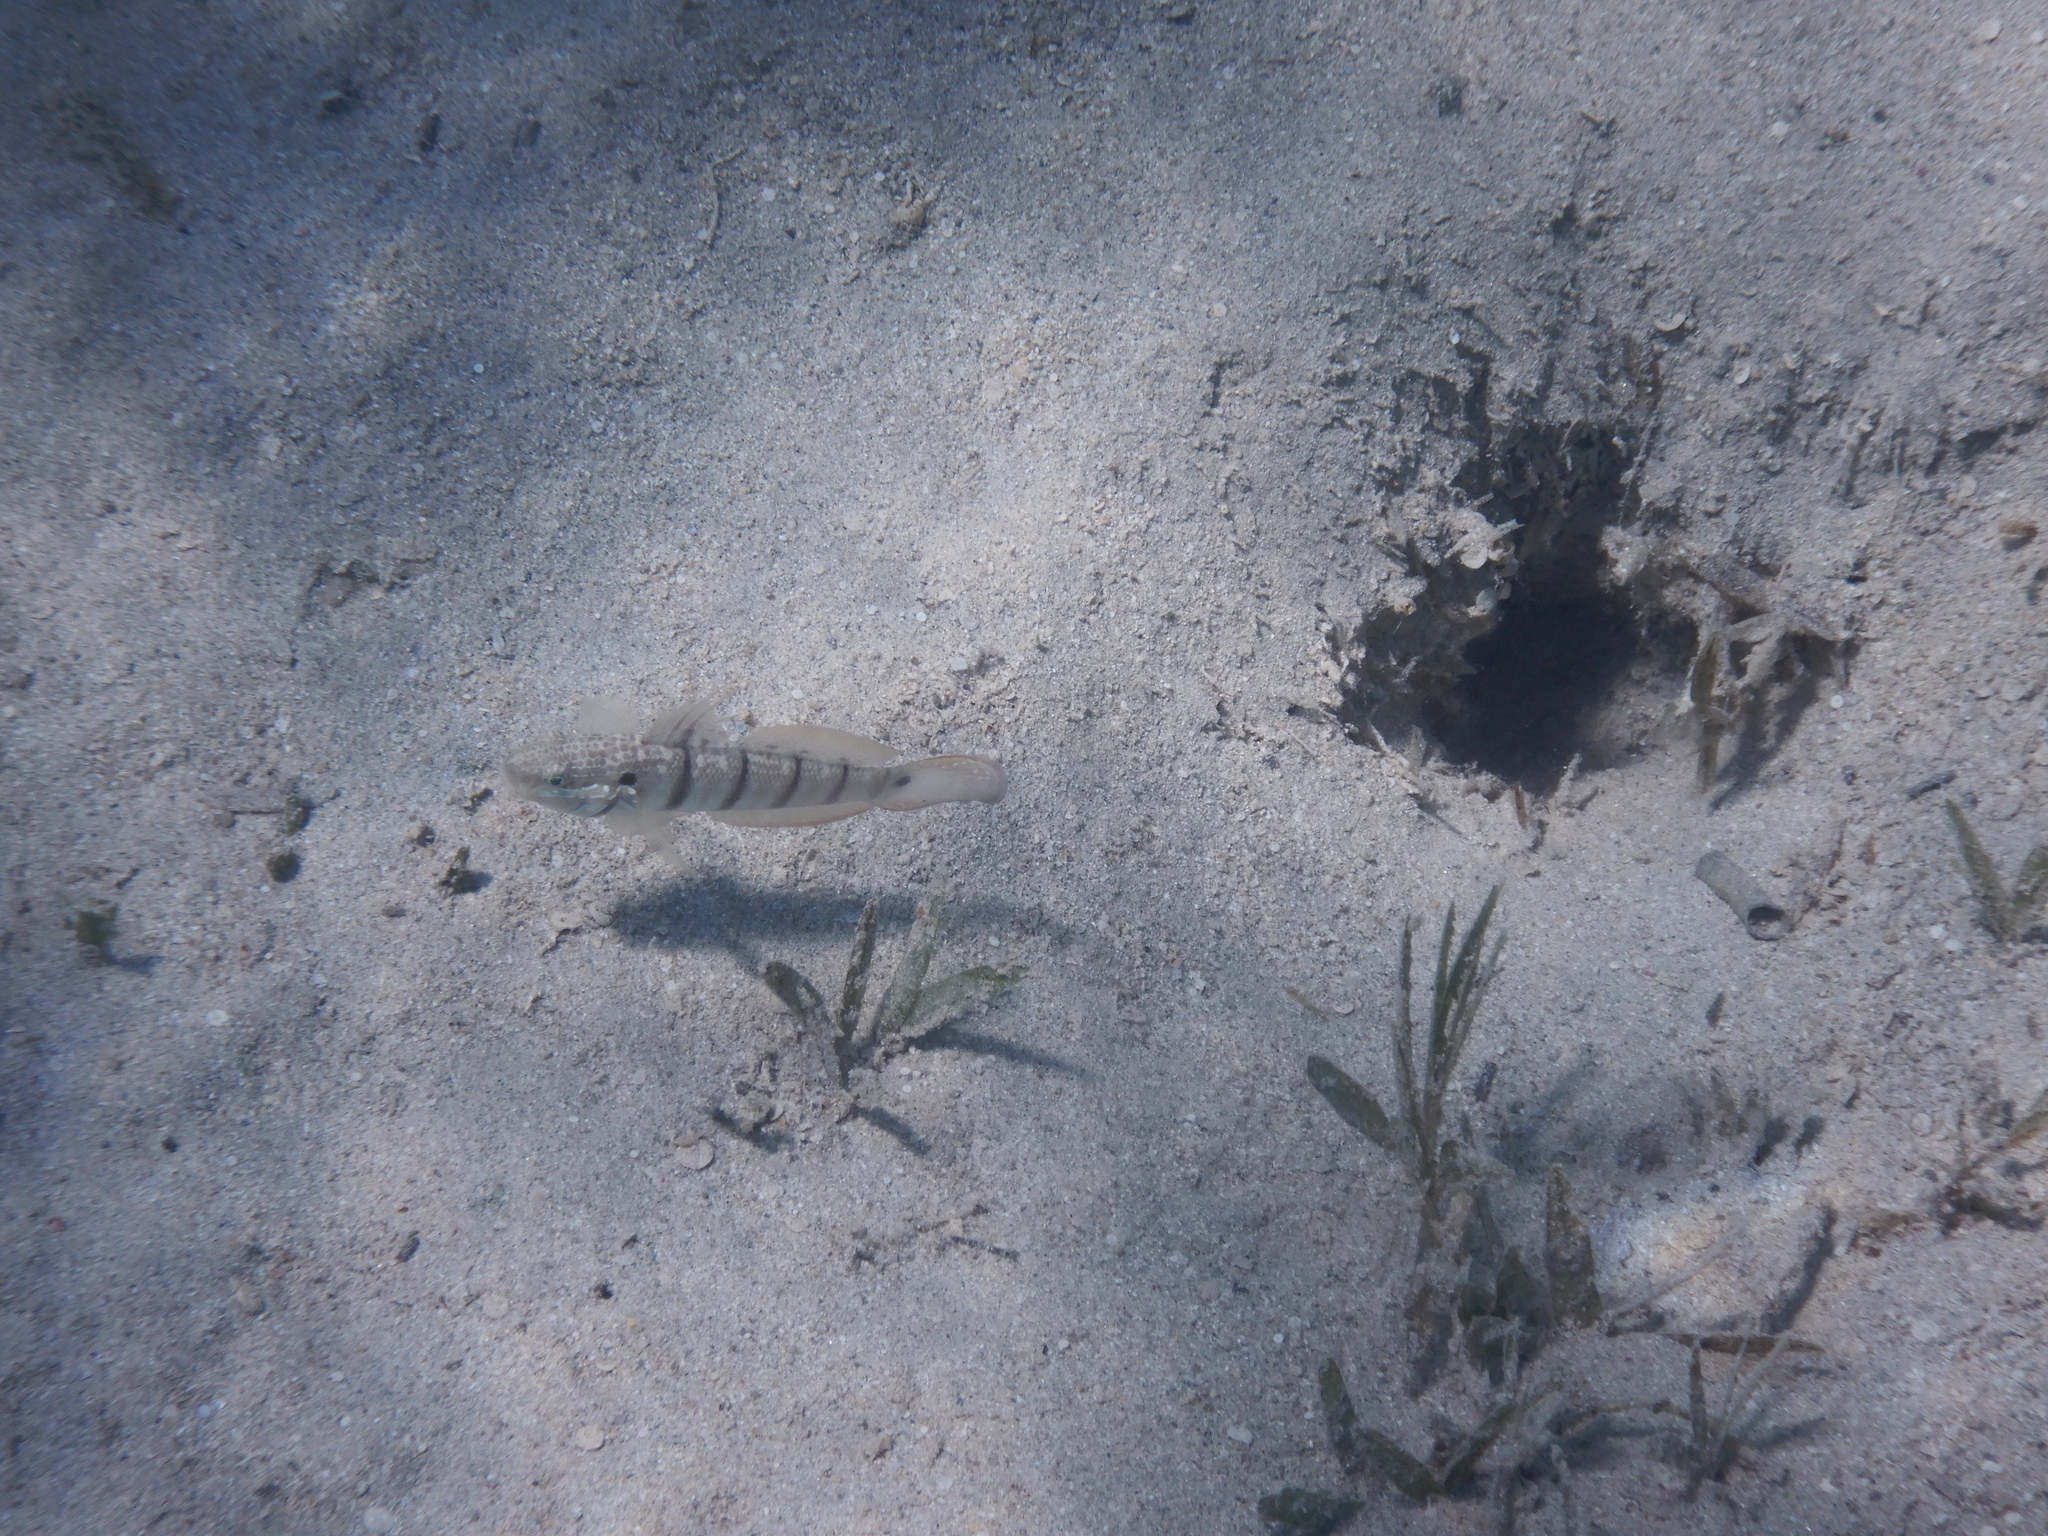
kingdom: Animalia
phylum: Chordata
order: Perciformes
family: Gobiidae
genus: Amblygobius
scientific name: Amblygobius albimaculatus
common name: Butterfly goby
